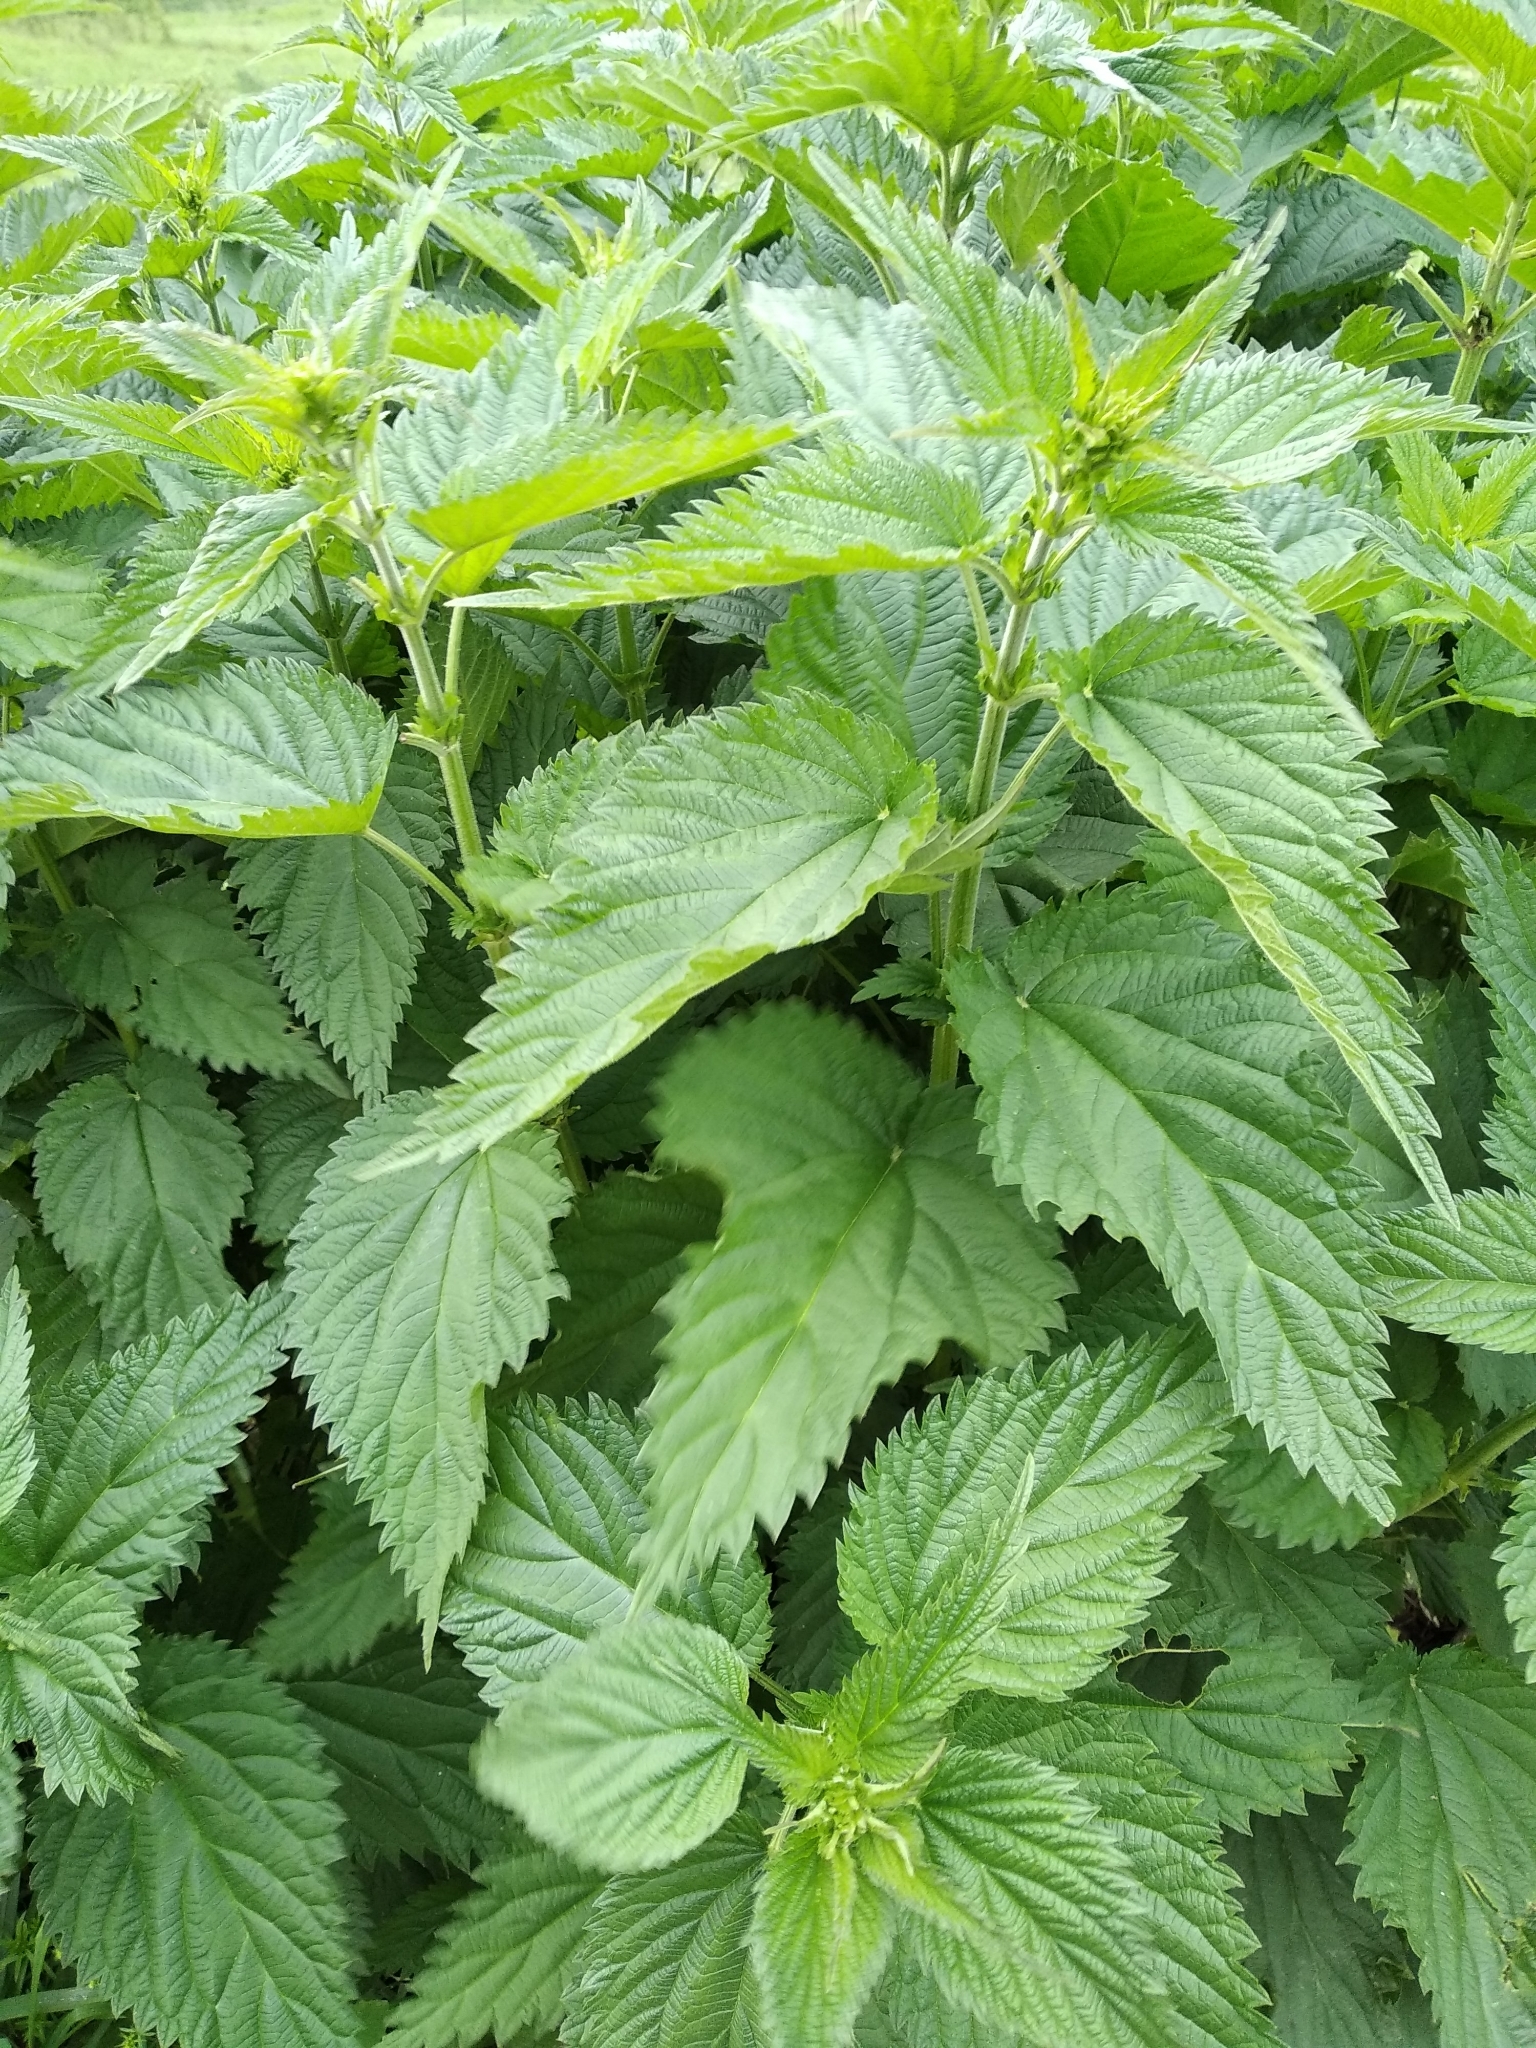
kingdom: Plantae
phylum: Tracheophyta
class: Magnoliopsida
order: Rosales
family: Urticaceae
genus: Urtica
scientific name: Urtica dioica
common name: Common nettle
